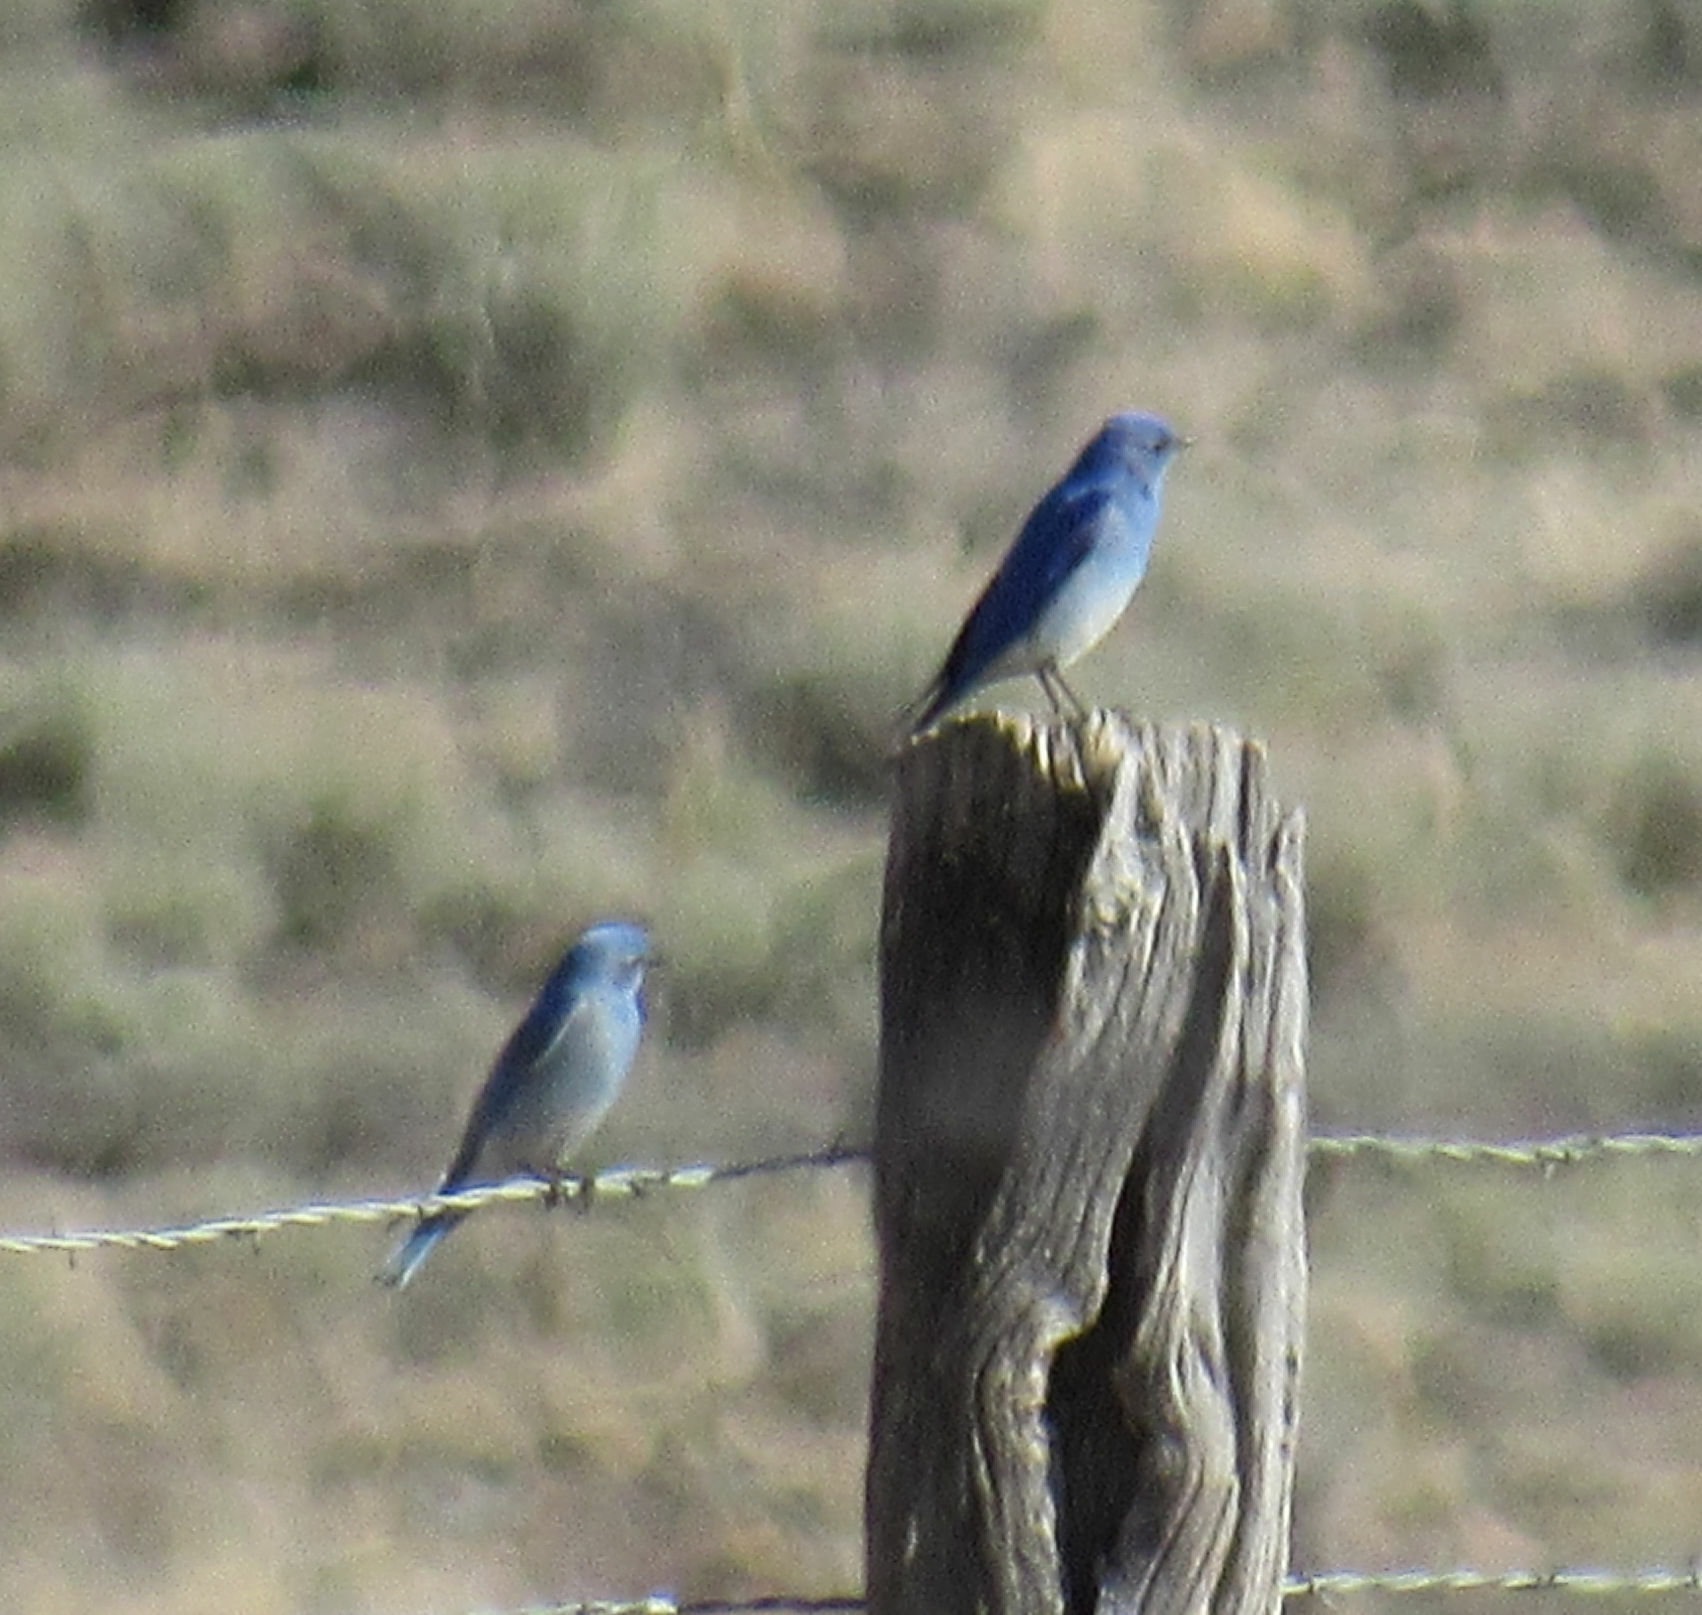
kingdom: Animalia
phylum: Chordata
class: Aves
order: Passeriformes
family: Turdidae
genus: Sialia
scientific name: Sialia currucoides
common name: Mountain bluebird
